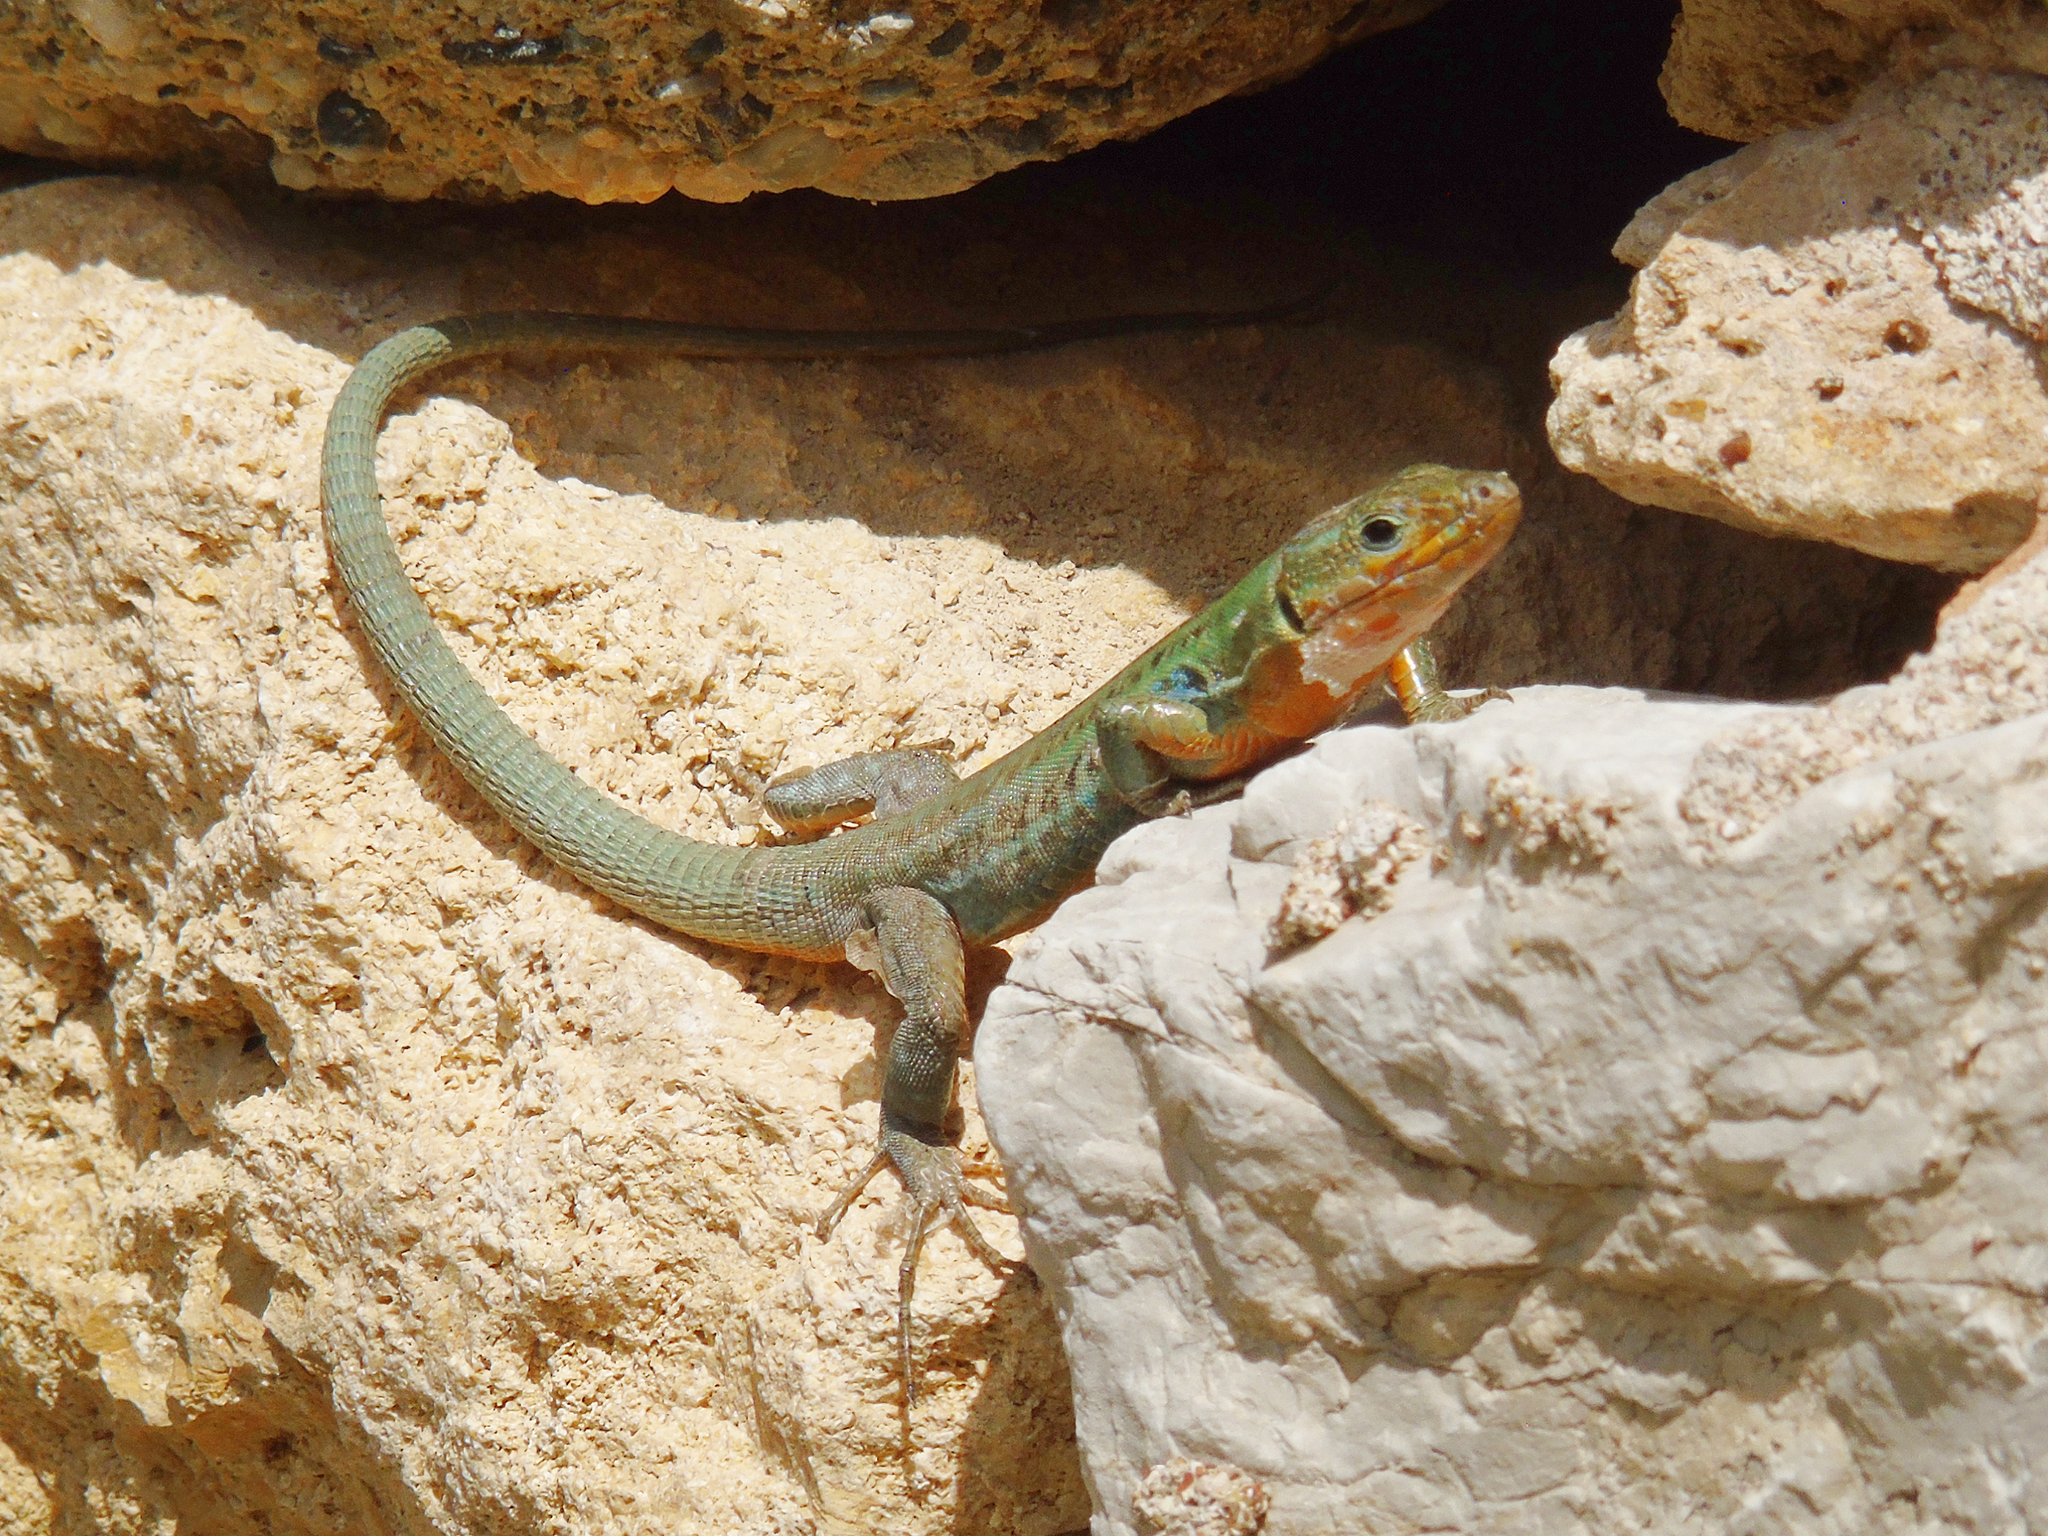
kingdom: Animalia
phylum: Chordata
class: Squamata
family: Lacertidae
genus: Podarcis
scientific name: Podarcis peloponnesiacus
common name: Peloponnese wall lizard
